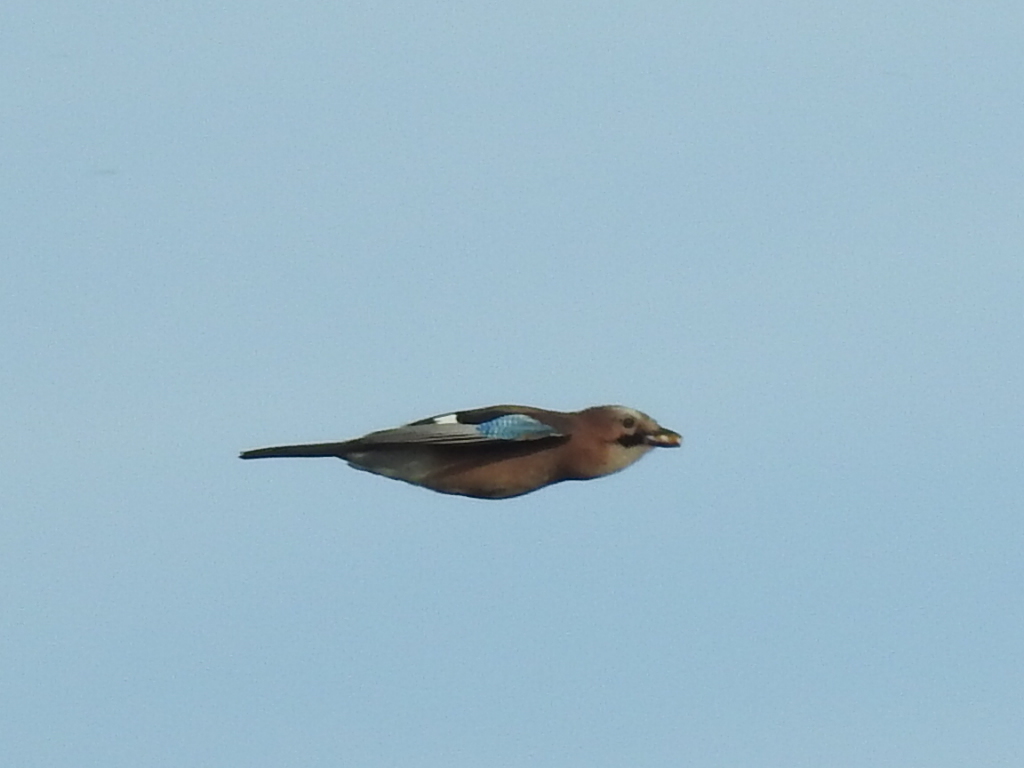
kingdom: Animalia
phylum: Chordata
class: Aves
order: Passeriformes
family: Corvidae
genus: Garrulus
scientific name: Garrulus glandarius
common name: Eurasian jay
